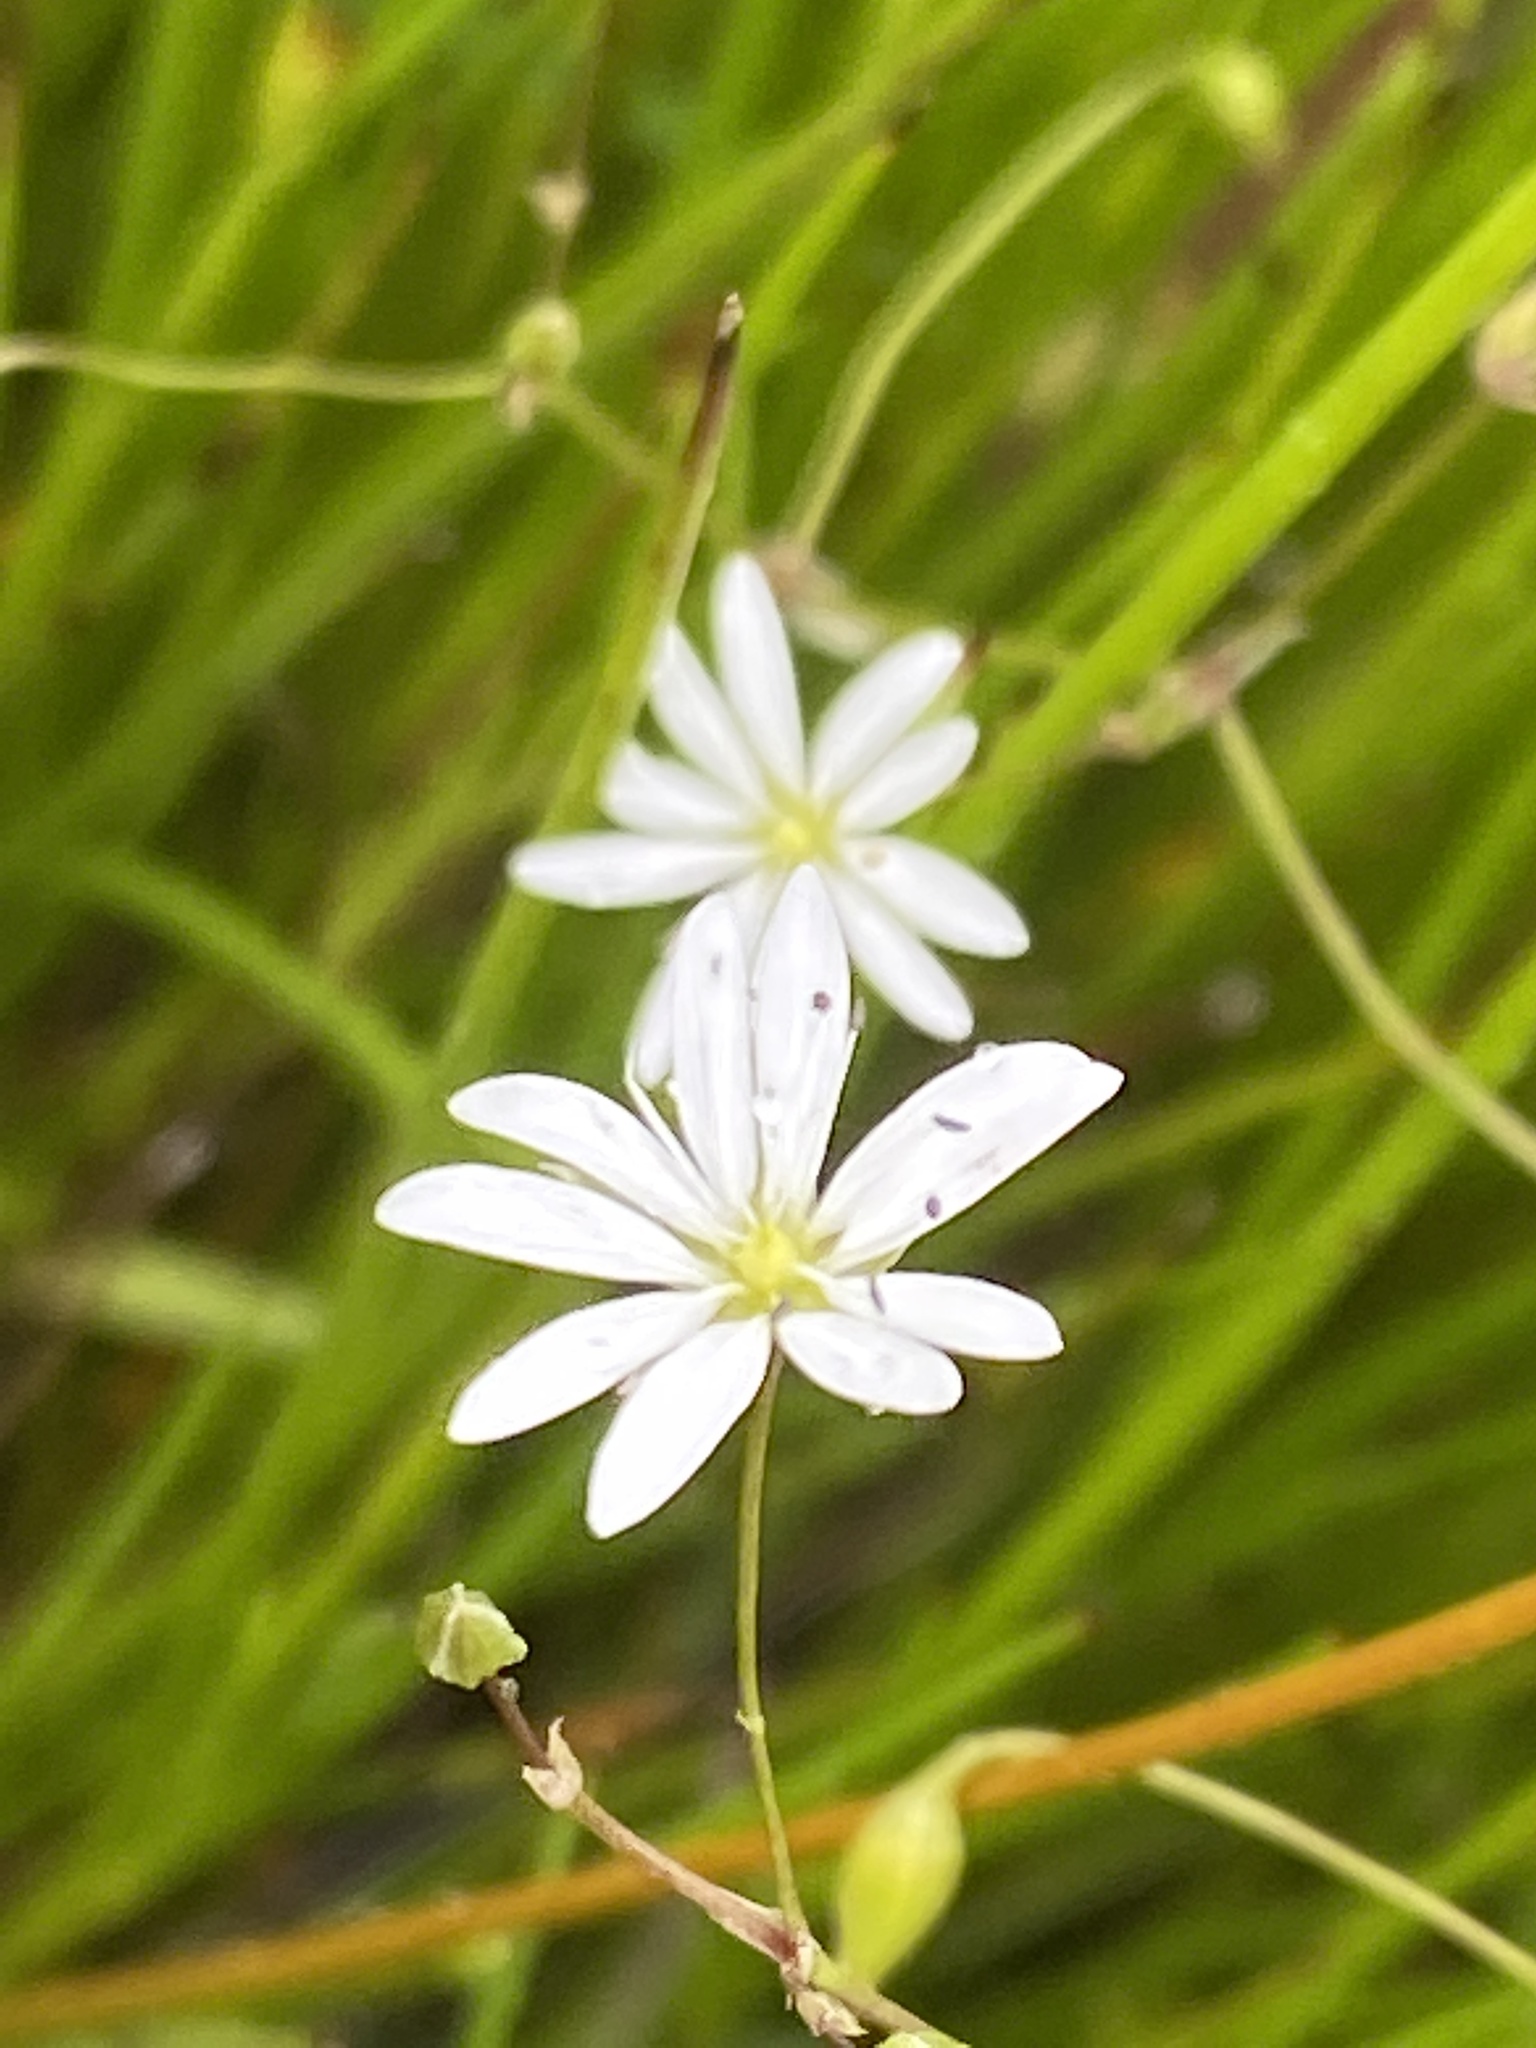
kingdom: Plantae
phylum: Tracheophyta
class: Magnoliopsida
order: Caryophyllales
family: Caryophyllaceae
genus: Stellaria
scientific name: Stellaria graminea
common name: Grass-like starwort
